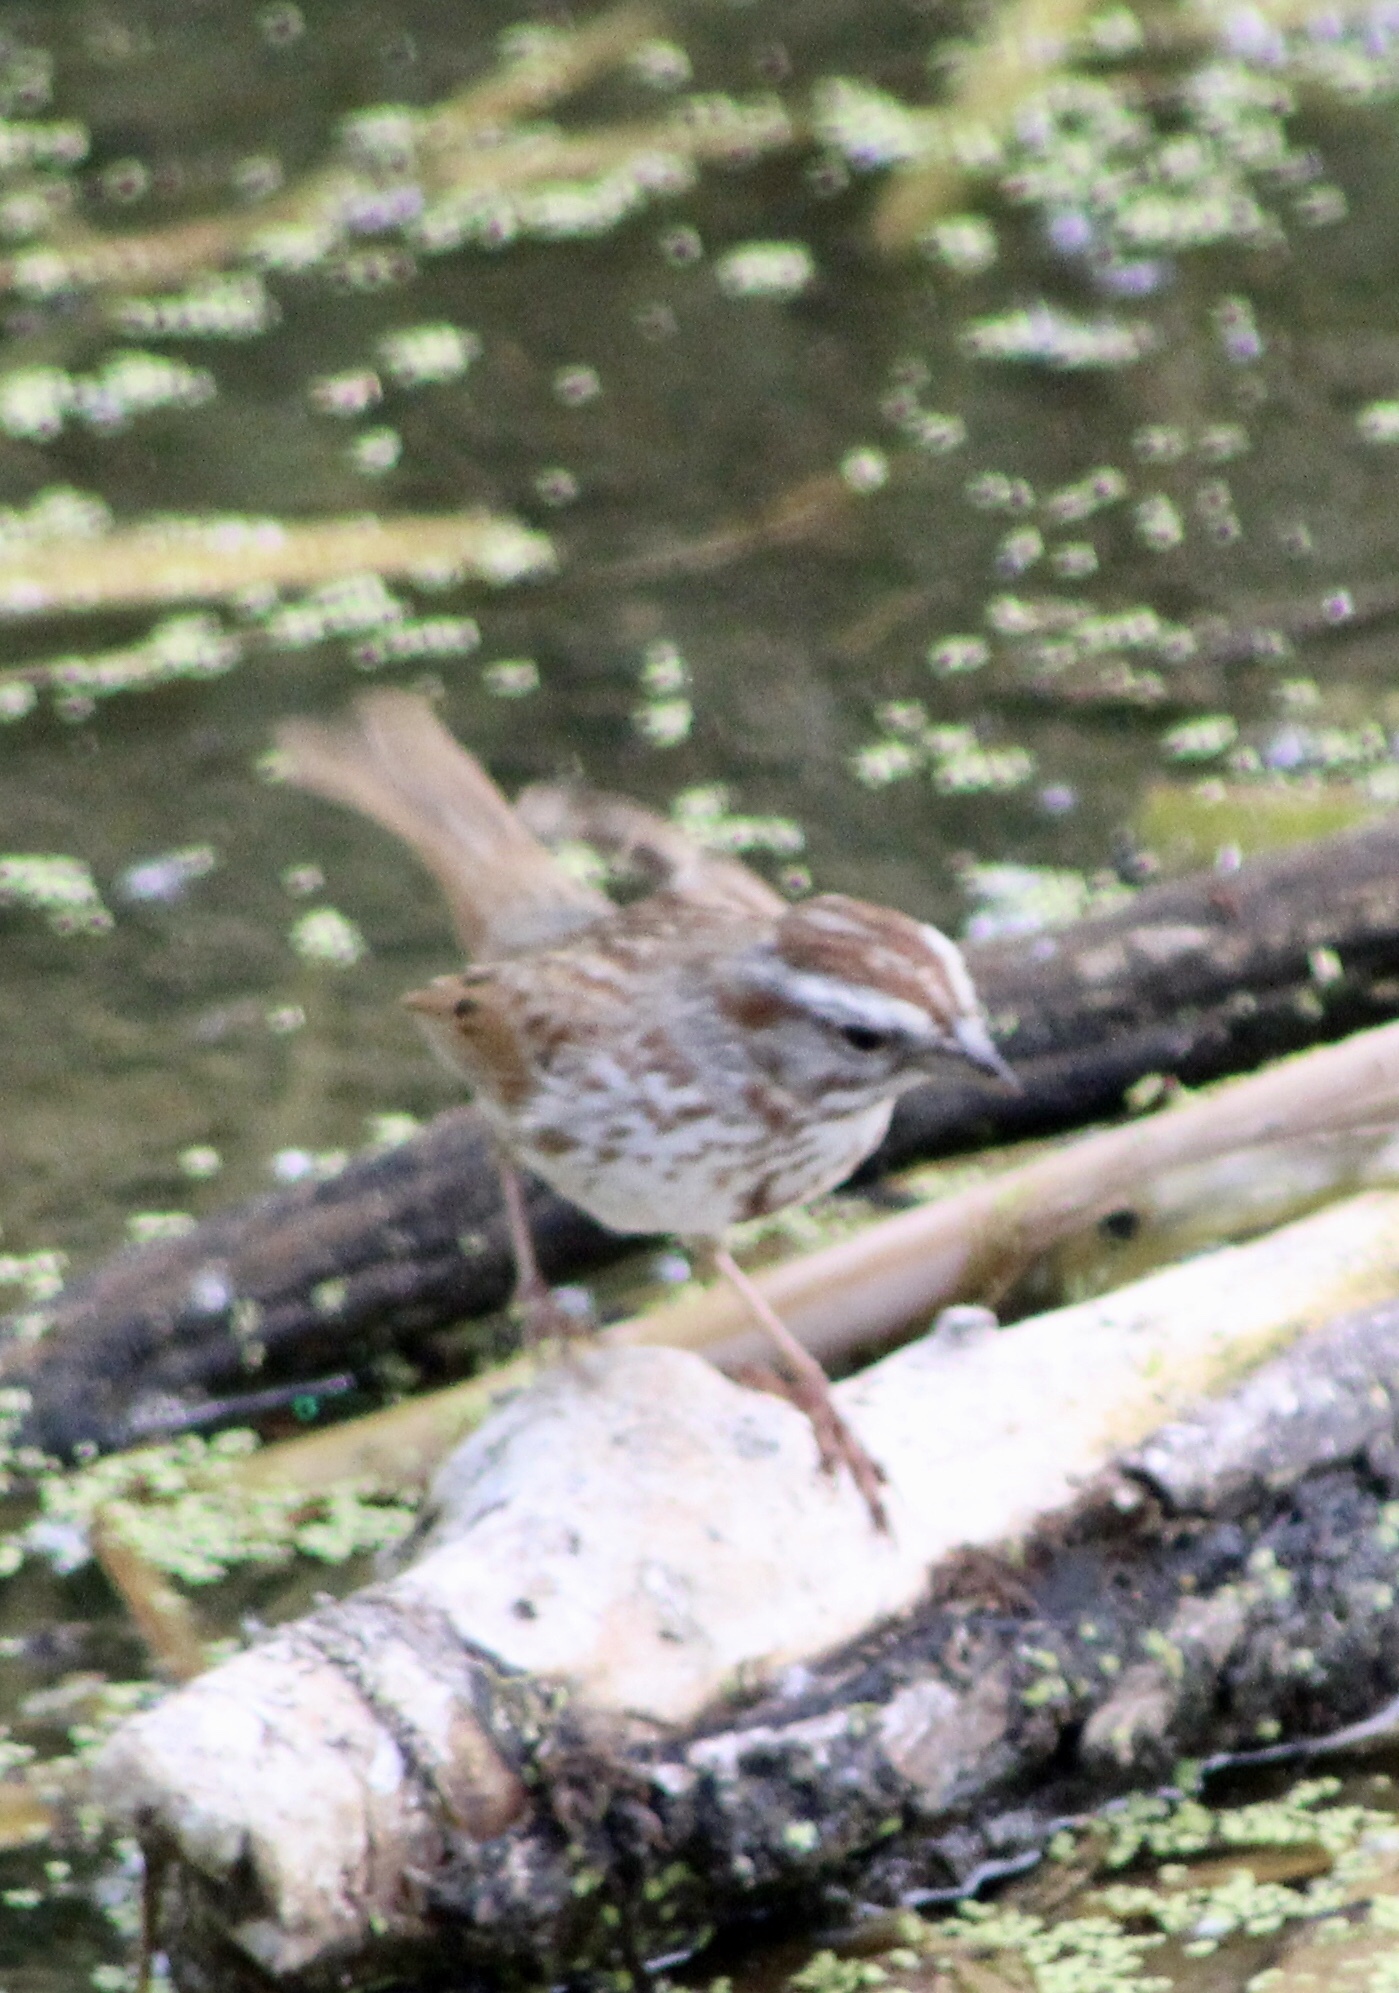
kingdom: Animalia
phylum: Chordata
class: Aves
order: Passeriformes
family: Passerellidae
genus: Melospiza
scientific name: Melospiza melodia
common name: Song sparrow
